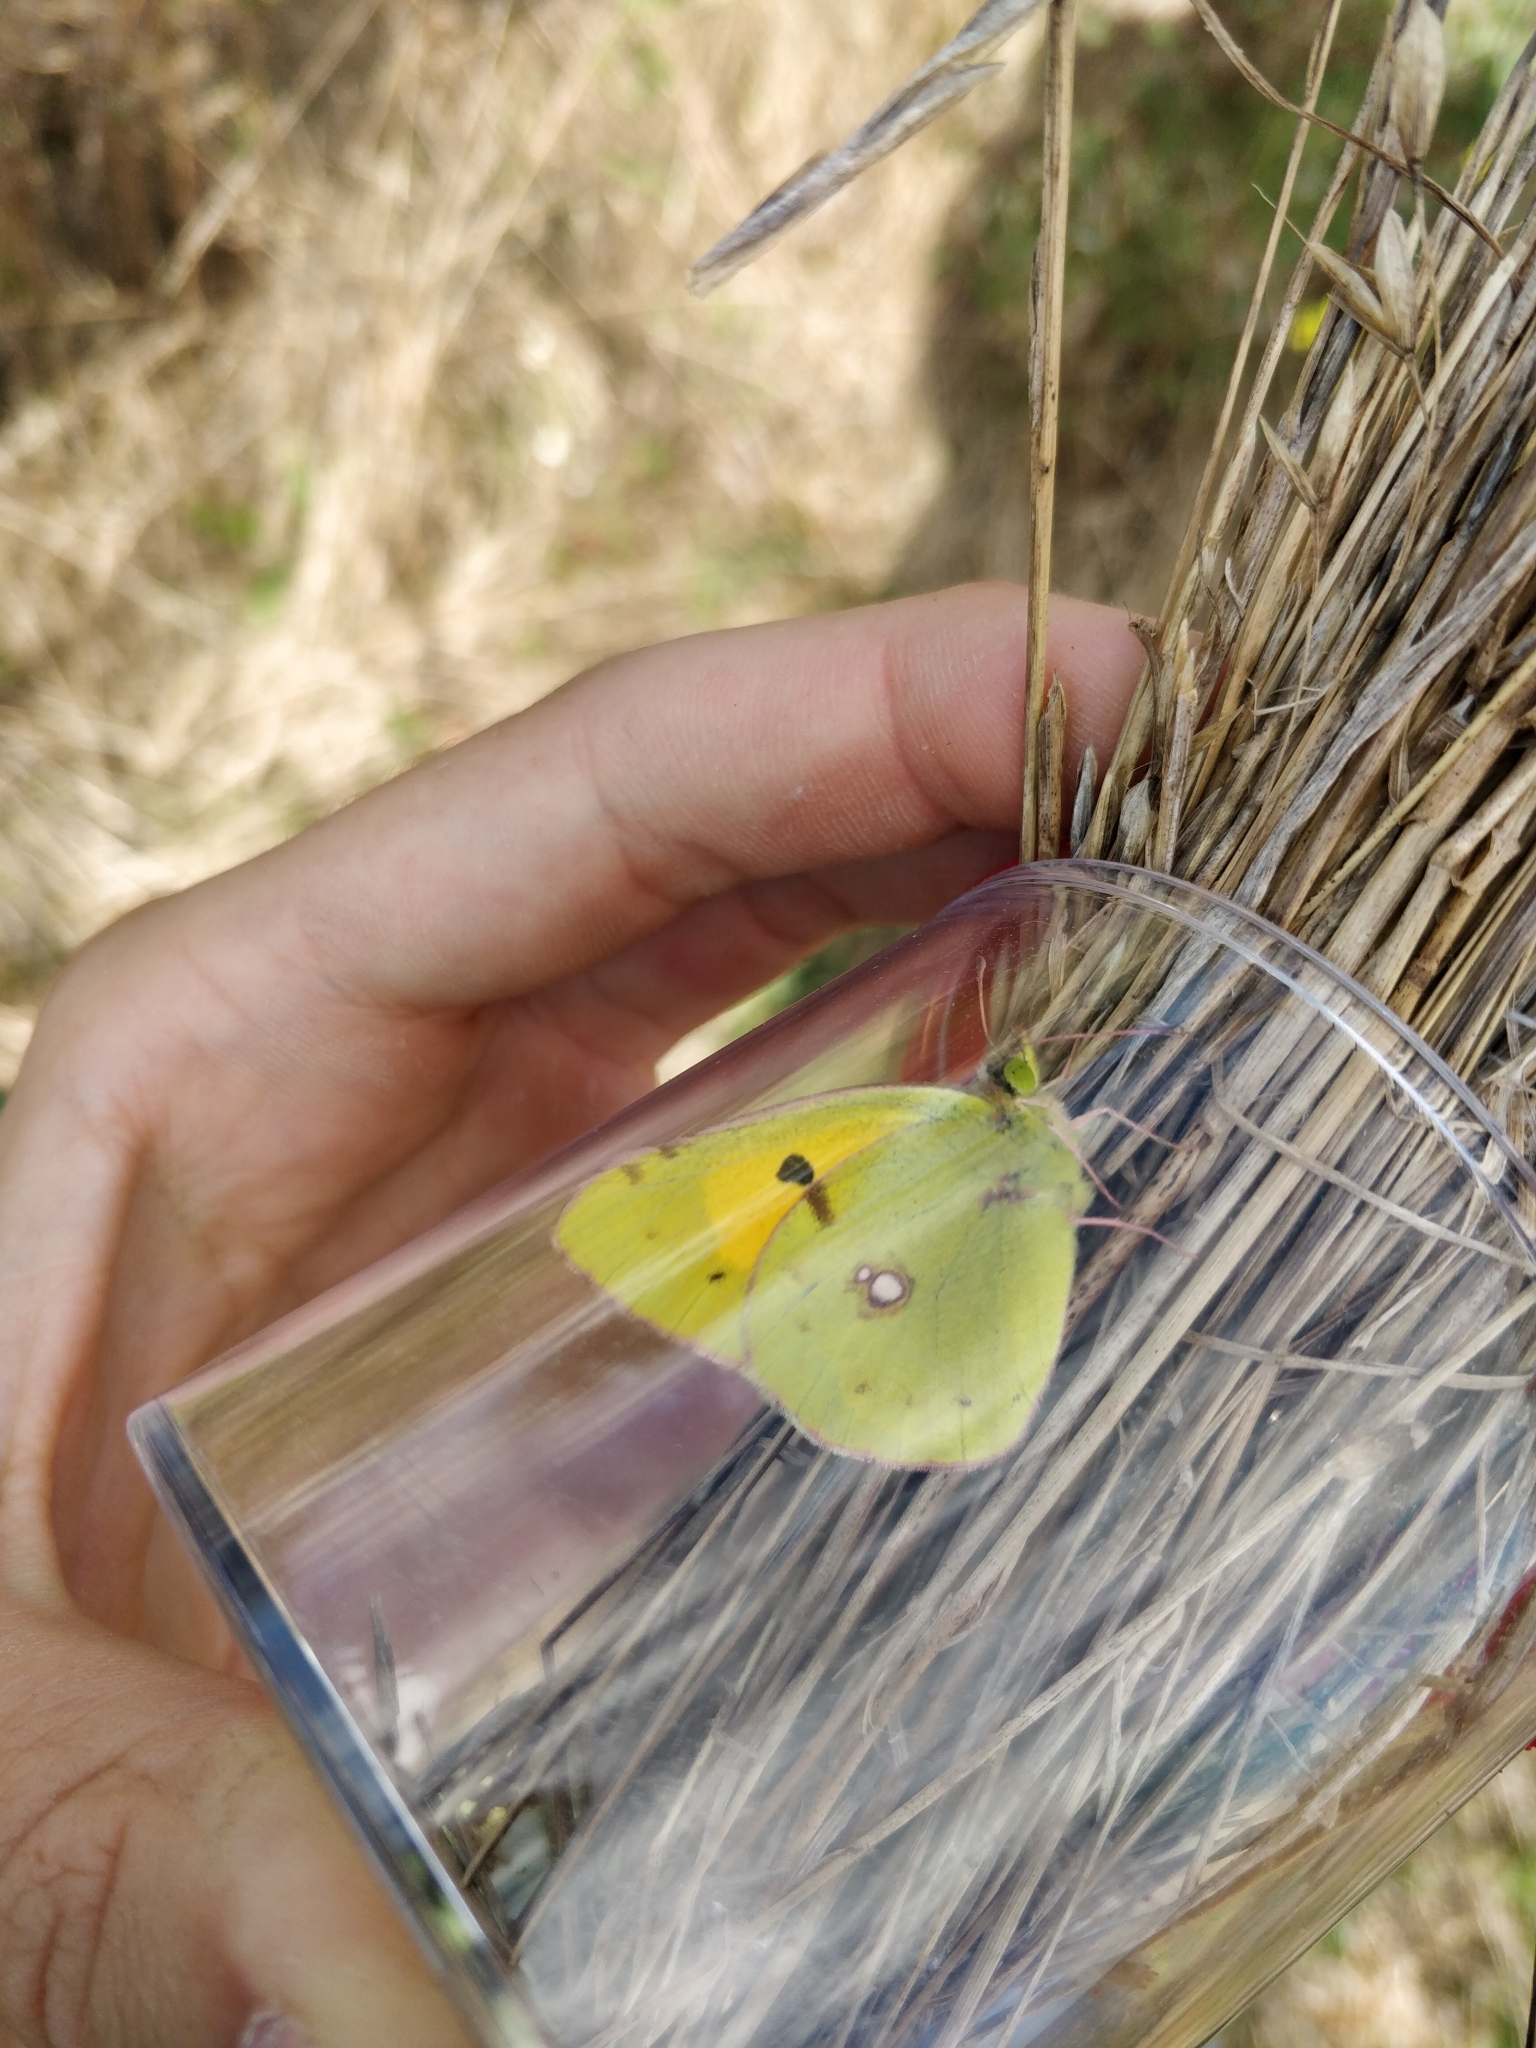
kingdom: Animalia
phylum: Arthropoda
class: Insecta
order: Lepidoptera
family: Pieridae
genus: Colias
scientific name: Colias croceus
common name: Clouded yellow
